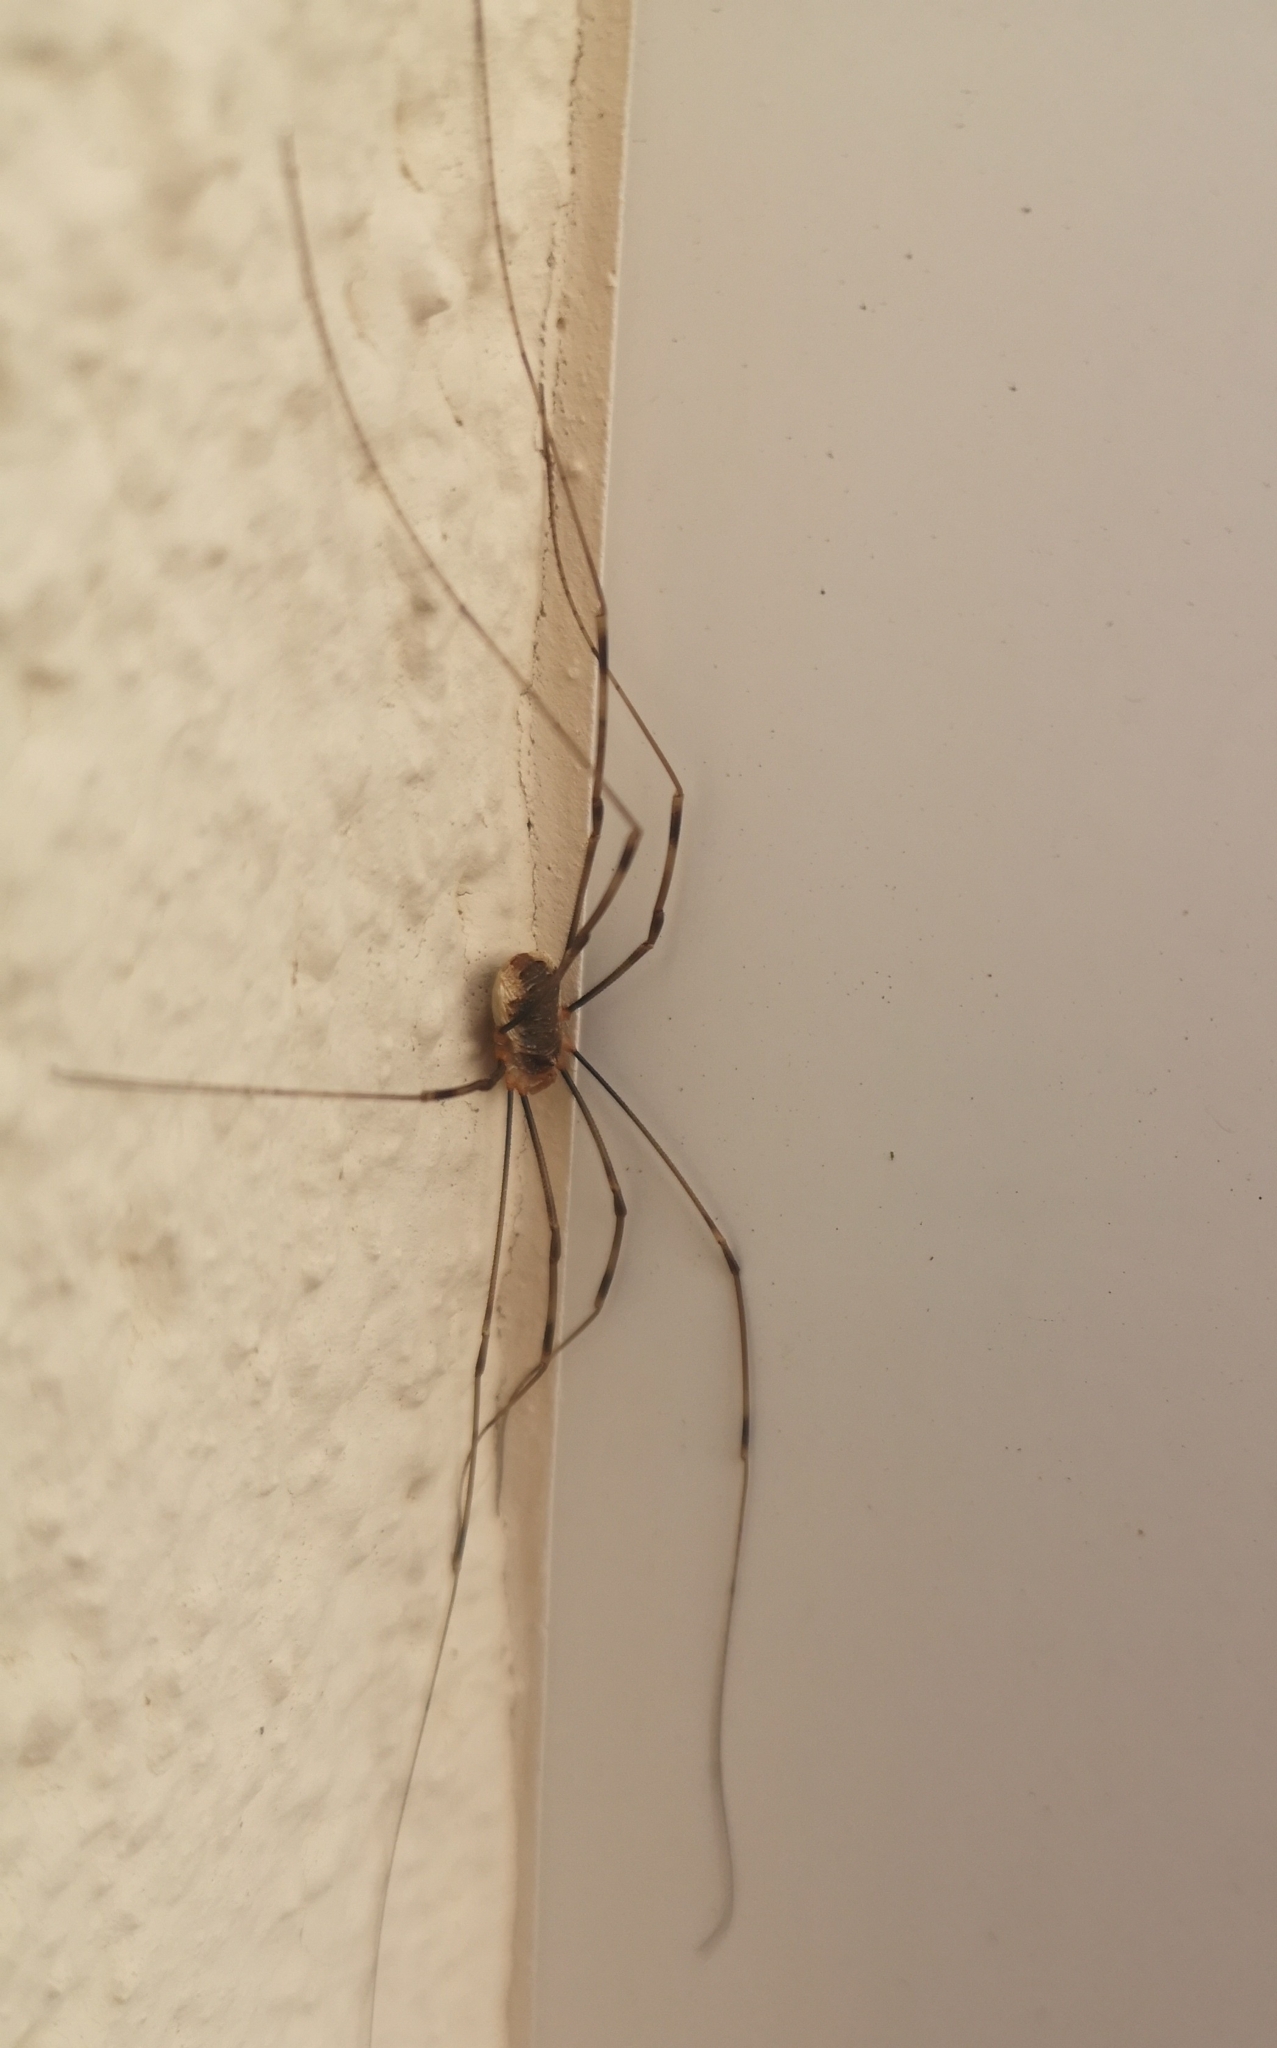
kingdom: Animalia
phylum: Arthropoda
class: Arachnida
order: Opiliones
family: Phalangiidae
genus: Opilio
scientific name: Opilio canestrinii
